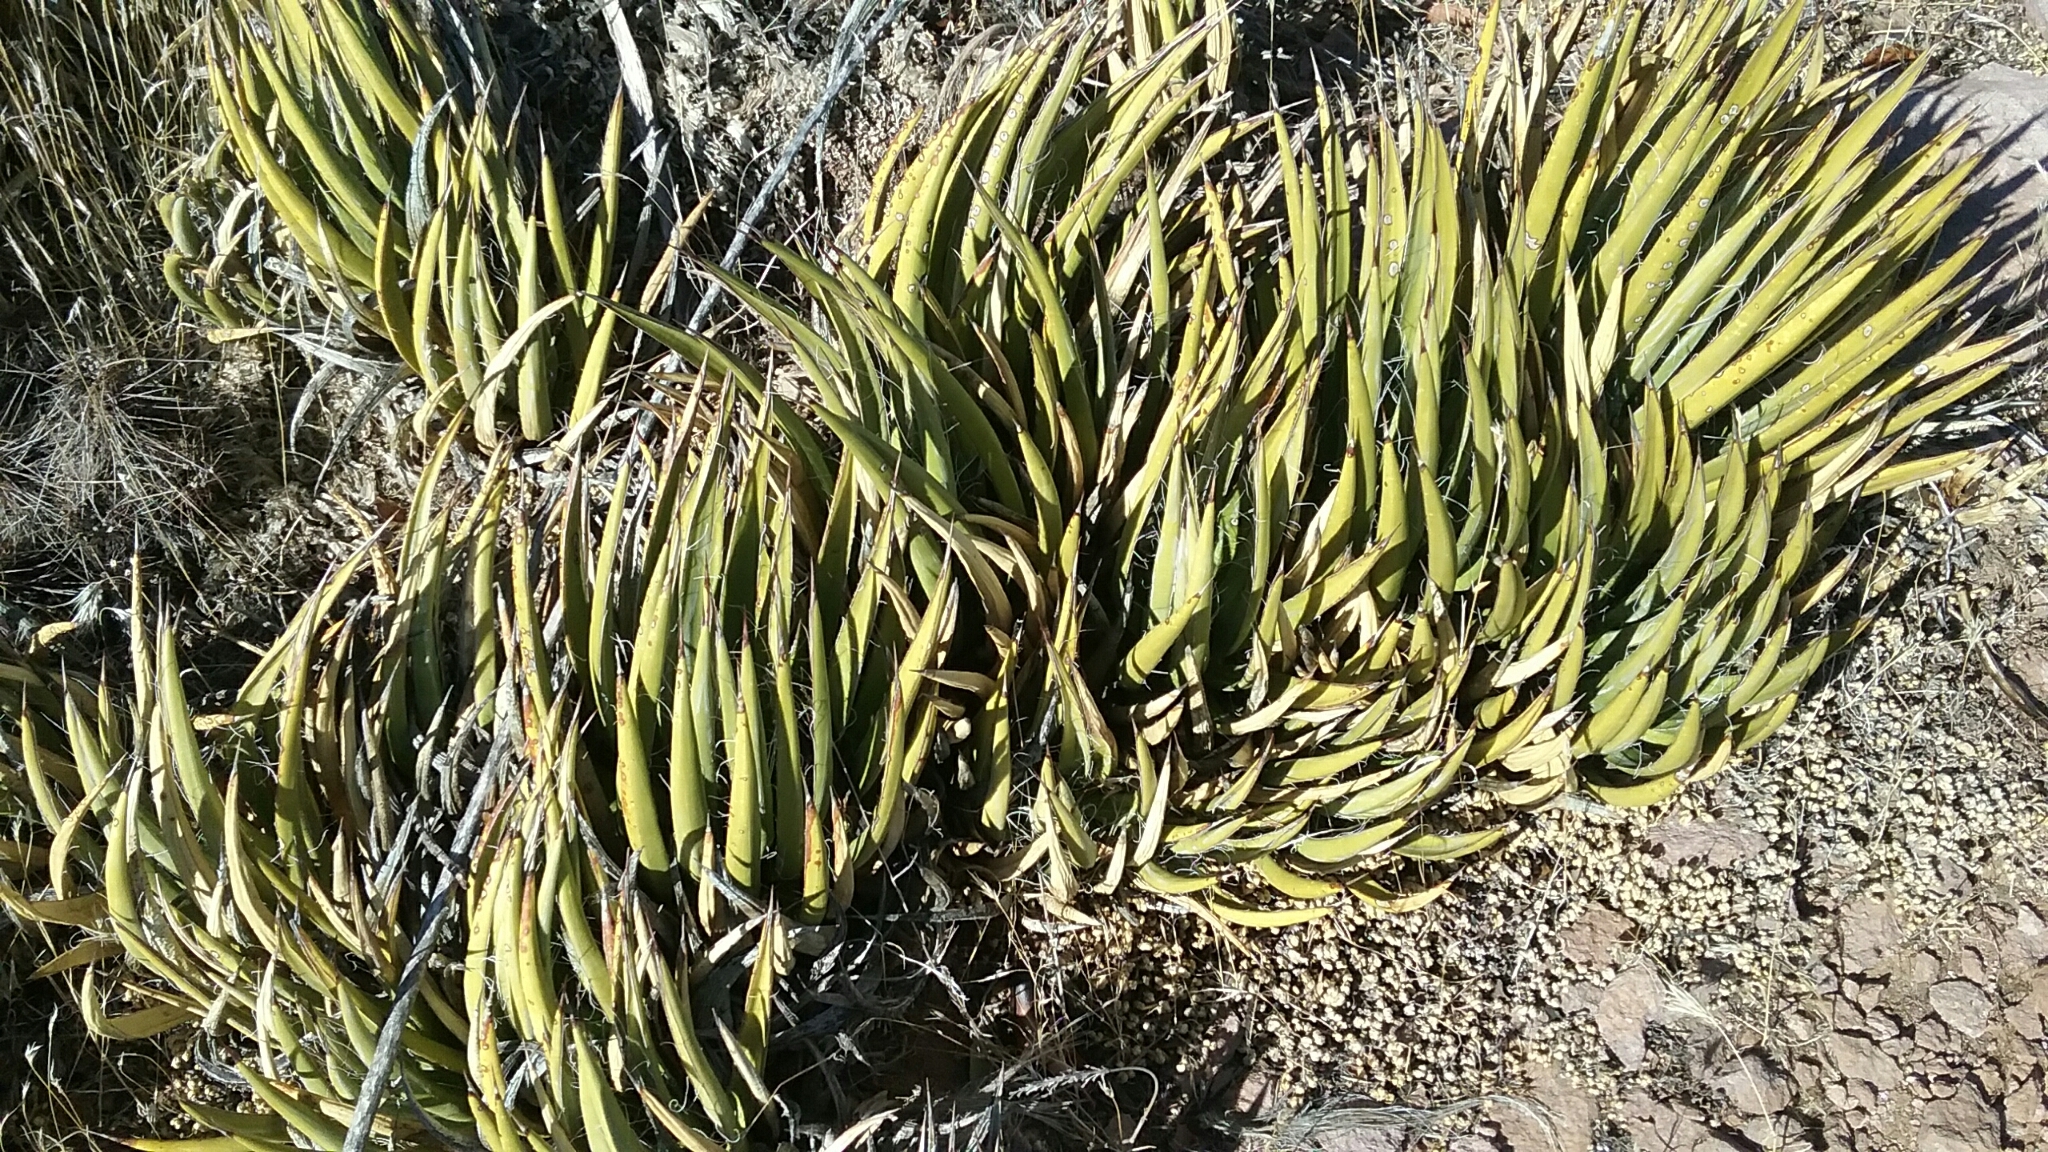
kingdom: Plantae
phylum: Tracheophyta
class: Liliopsida
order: Asparagales
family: Asparagaceae
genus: Agave
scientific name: Agave toumeyana
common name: Toumey's agave
